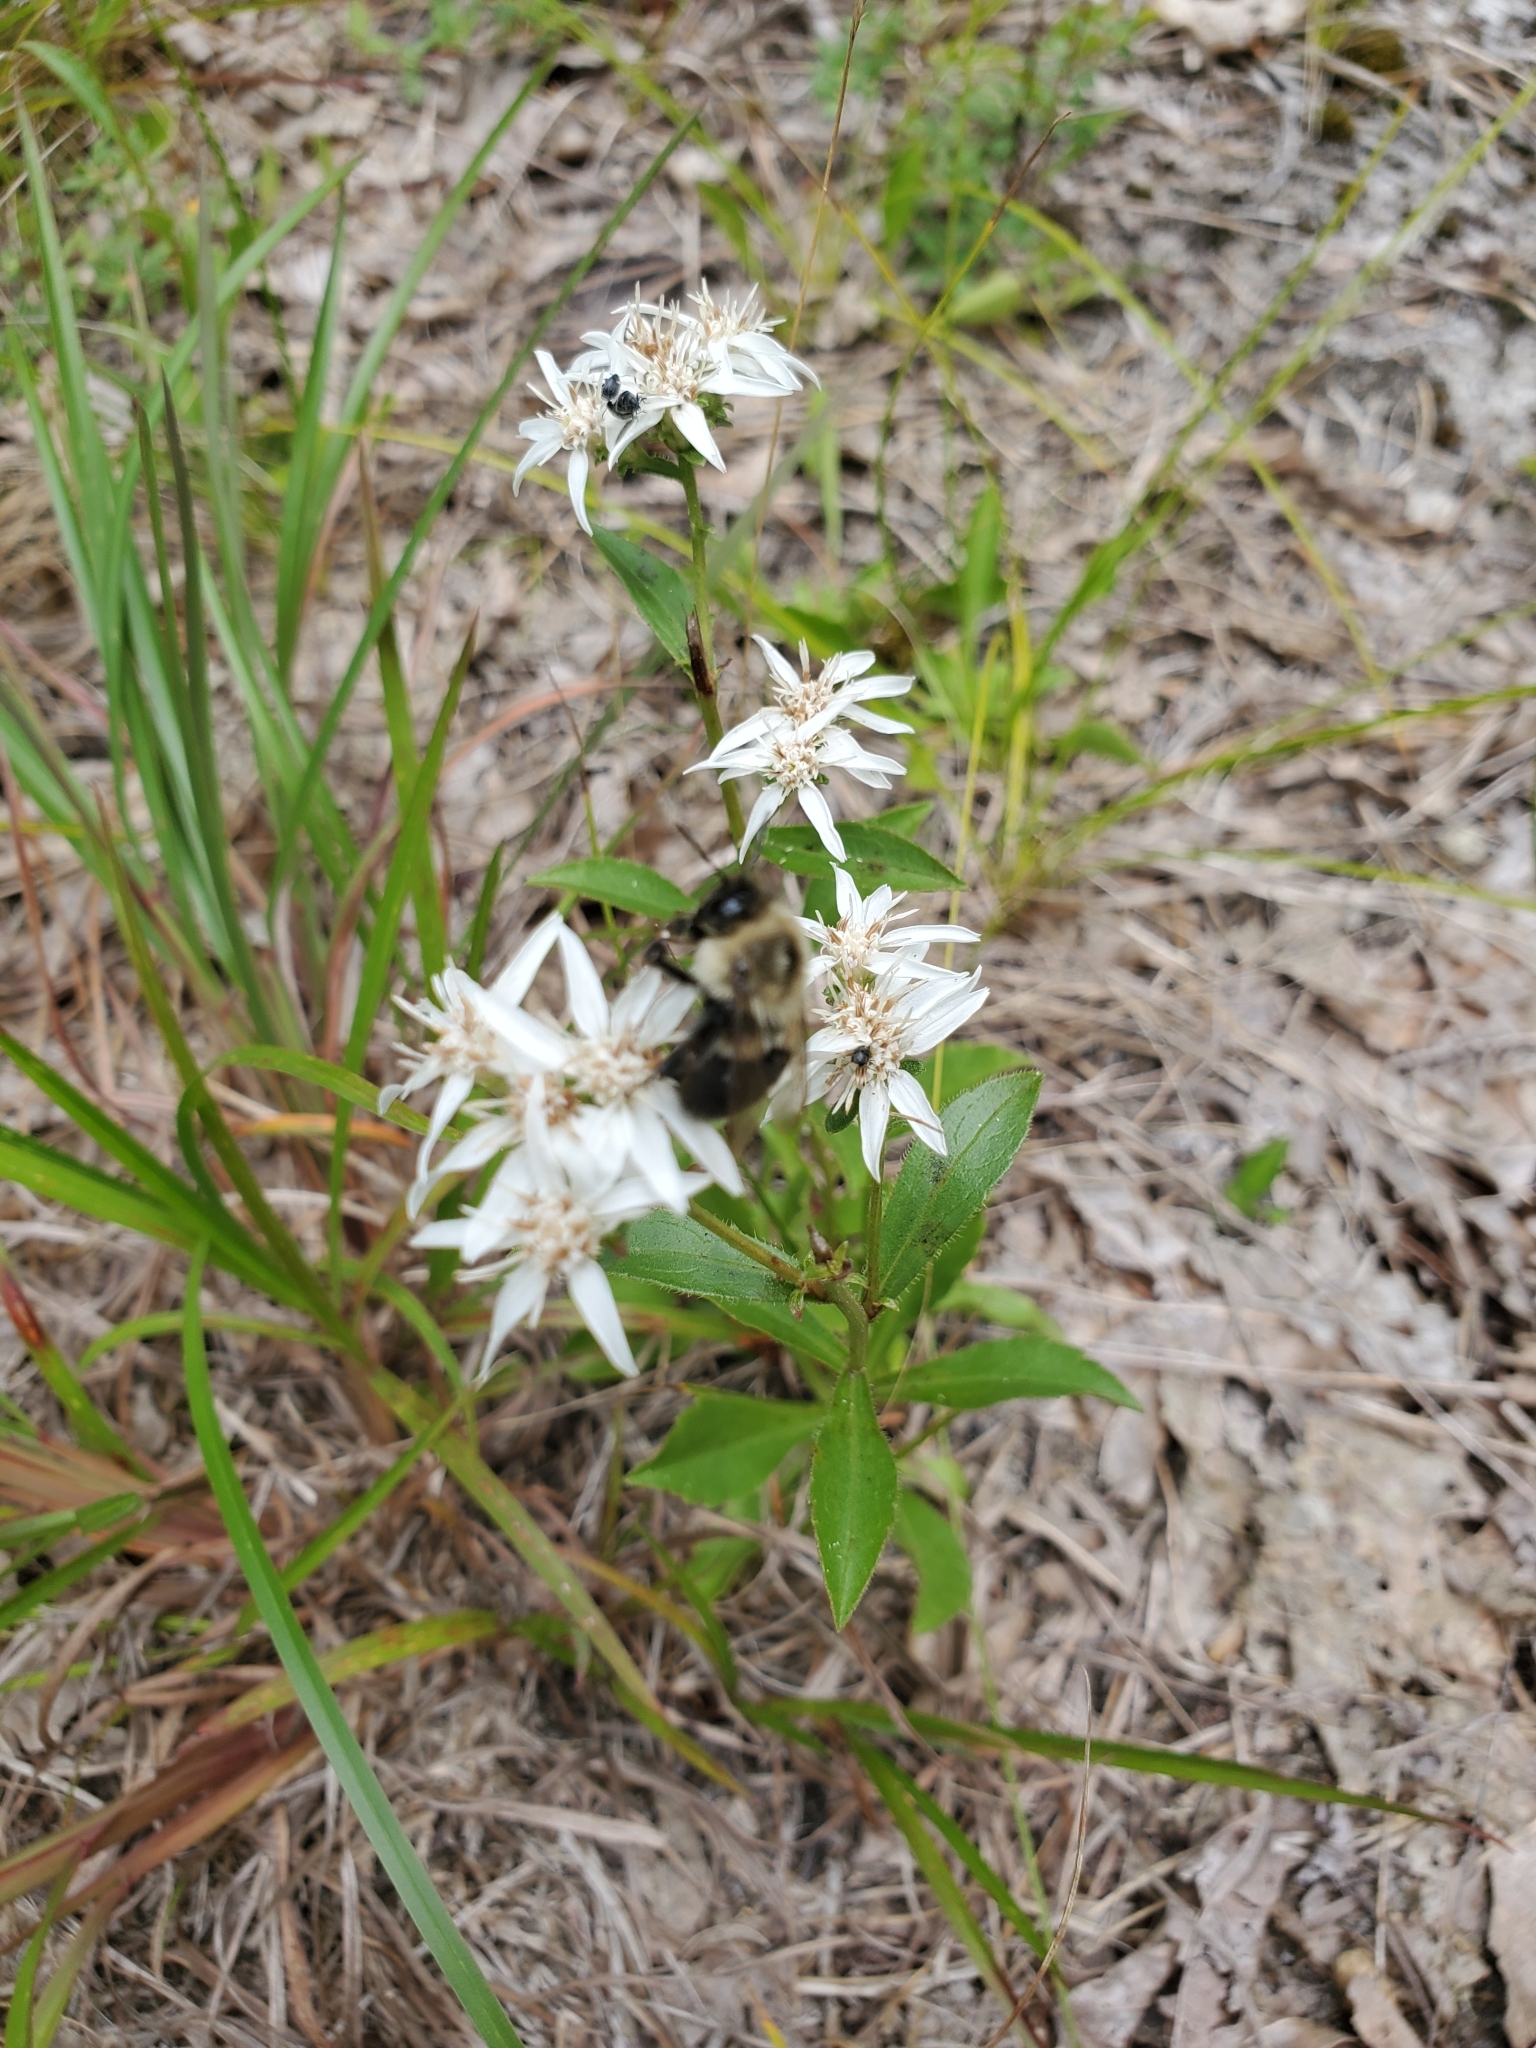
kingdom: Plantae
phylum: Tracheophyta
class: Magnoliopsida
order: Asterales
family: Asteraceae
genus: Sericocarpus
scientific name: Sericocarpus asteroides
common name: Toothed white-top aster
